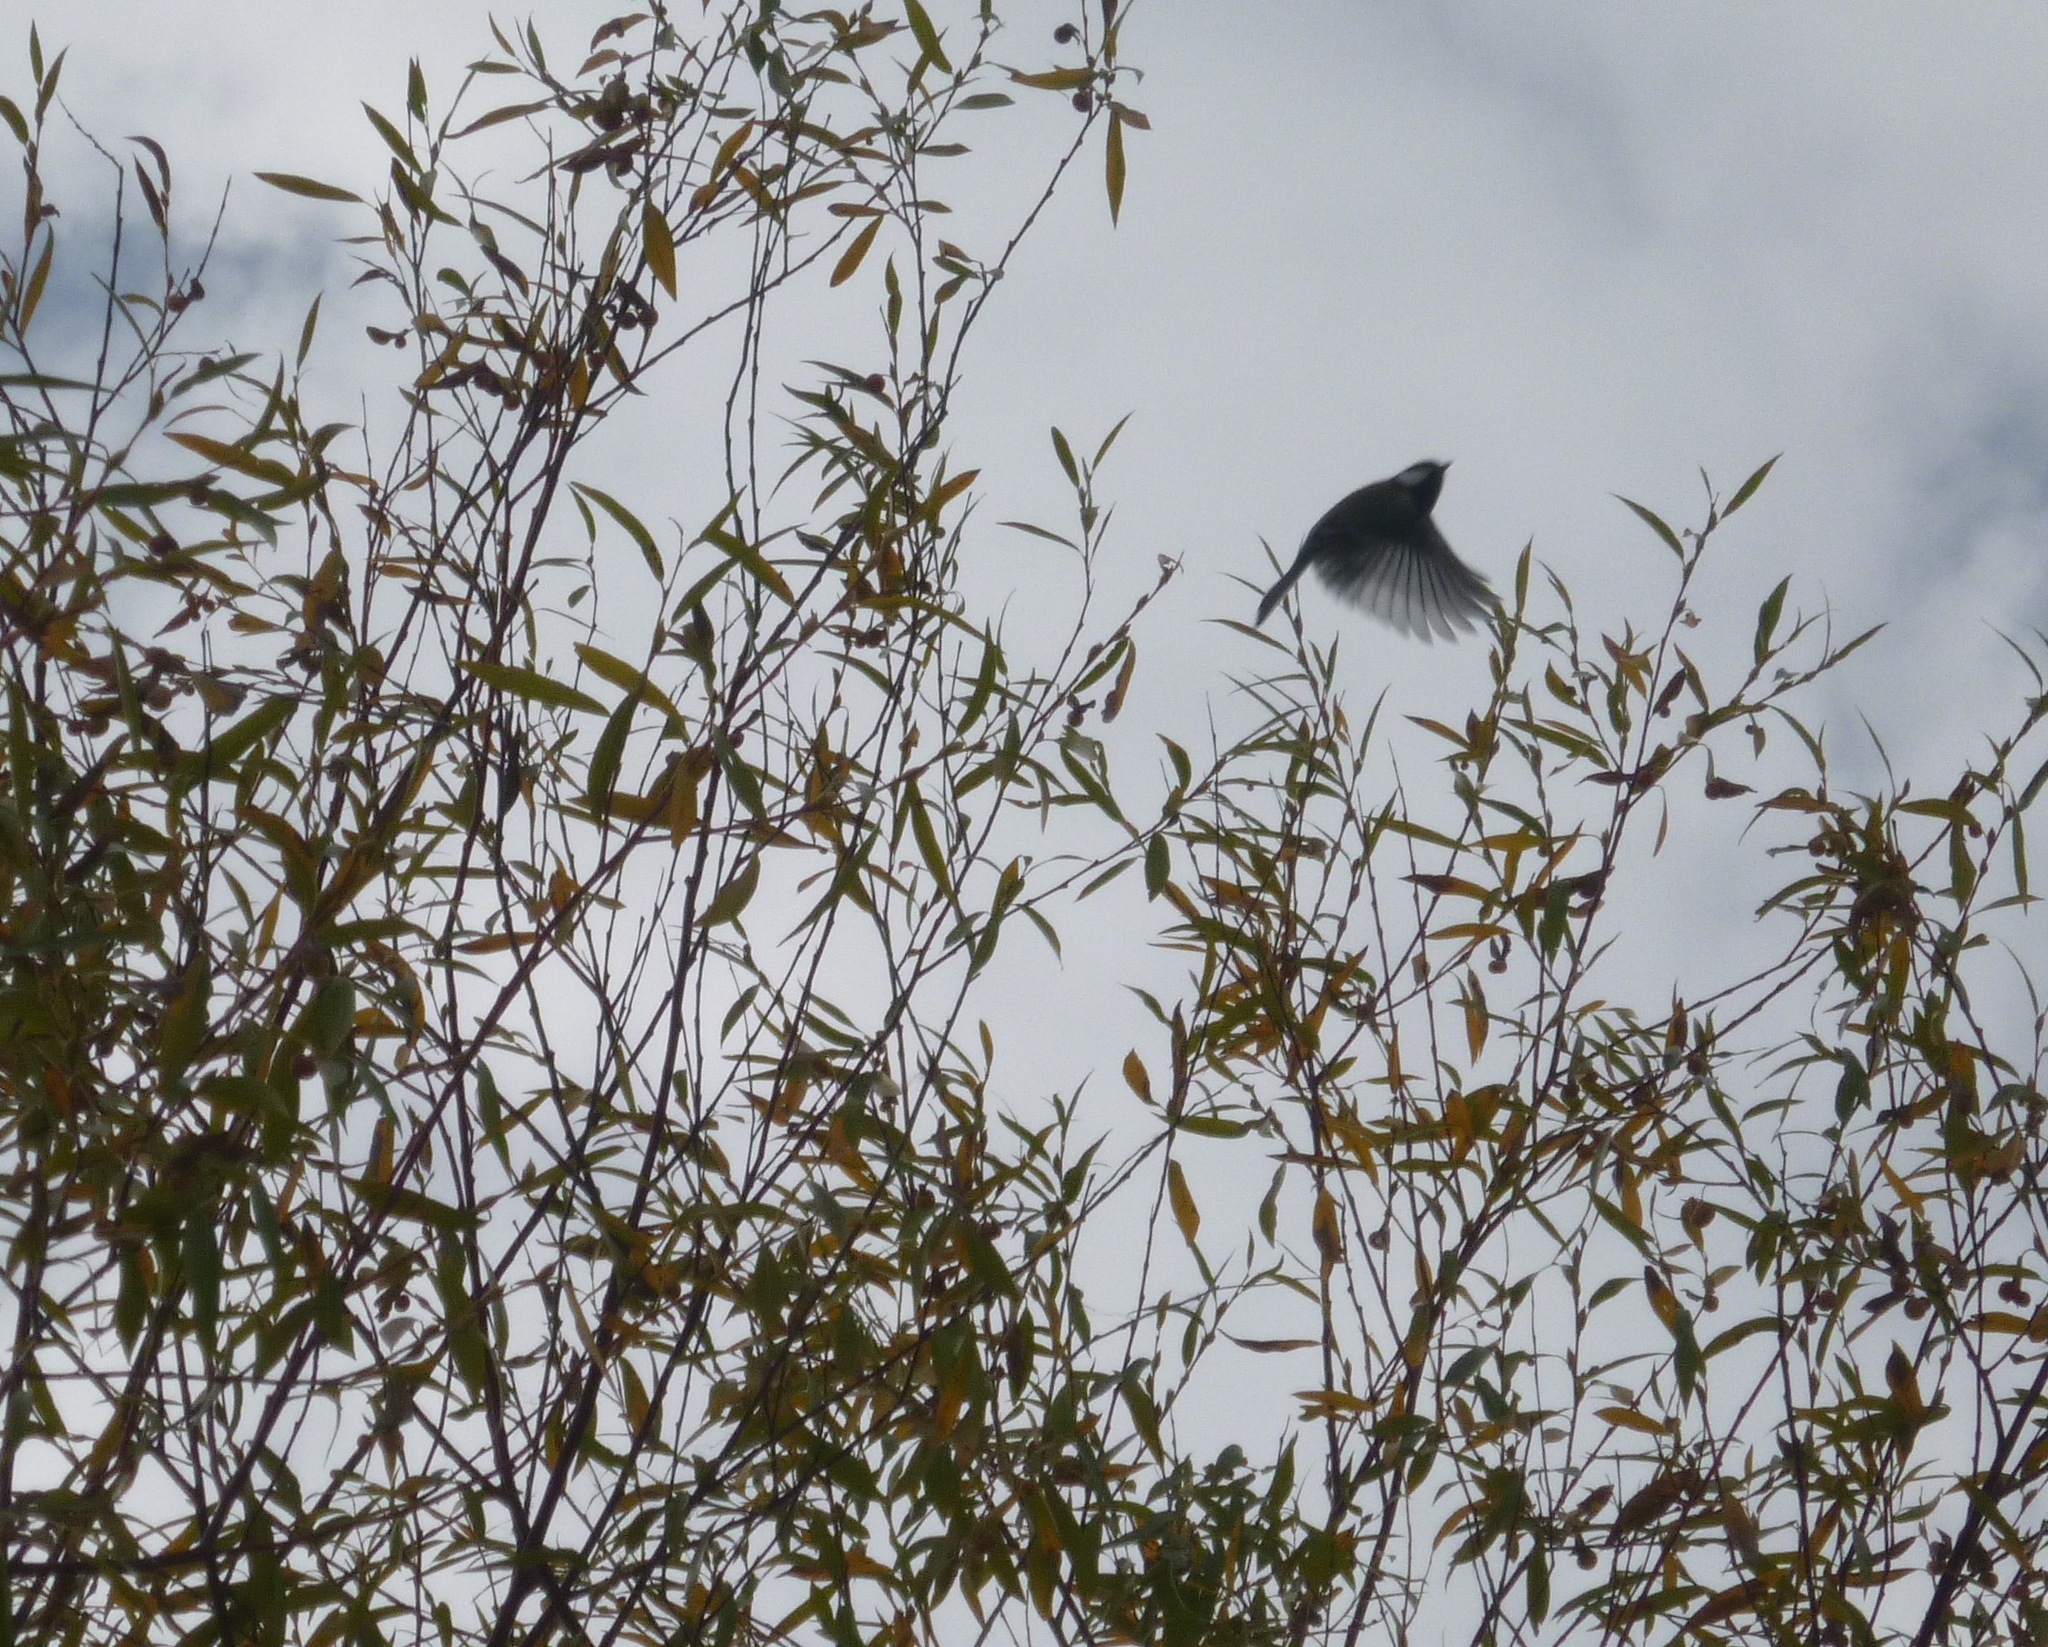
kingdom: Animalia
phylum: Chordata
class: Aves
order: Passeriformes
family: Paridae
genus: Parus
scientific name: Parus major
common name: Great tit
